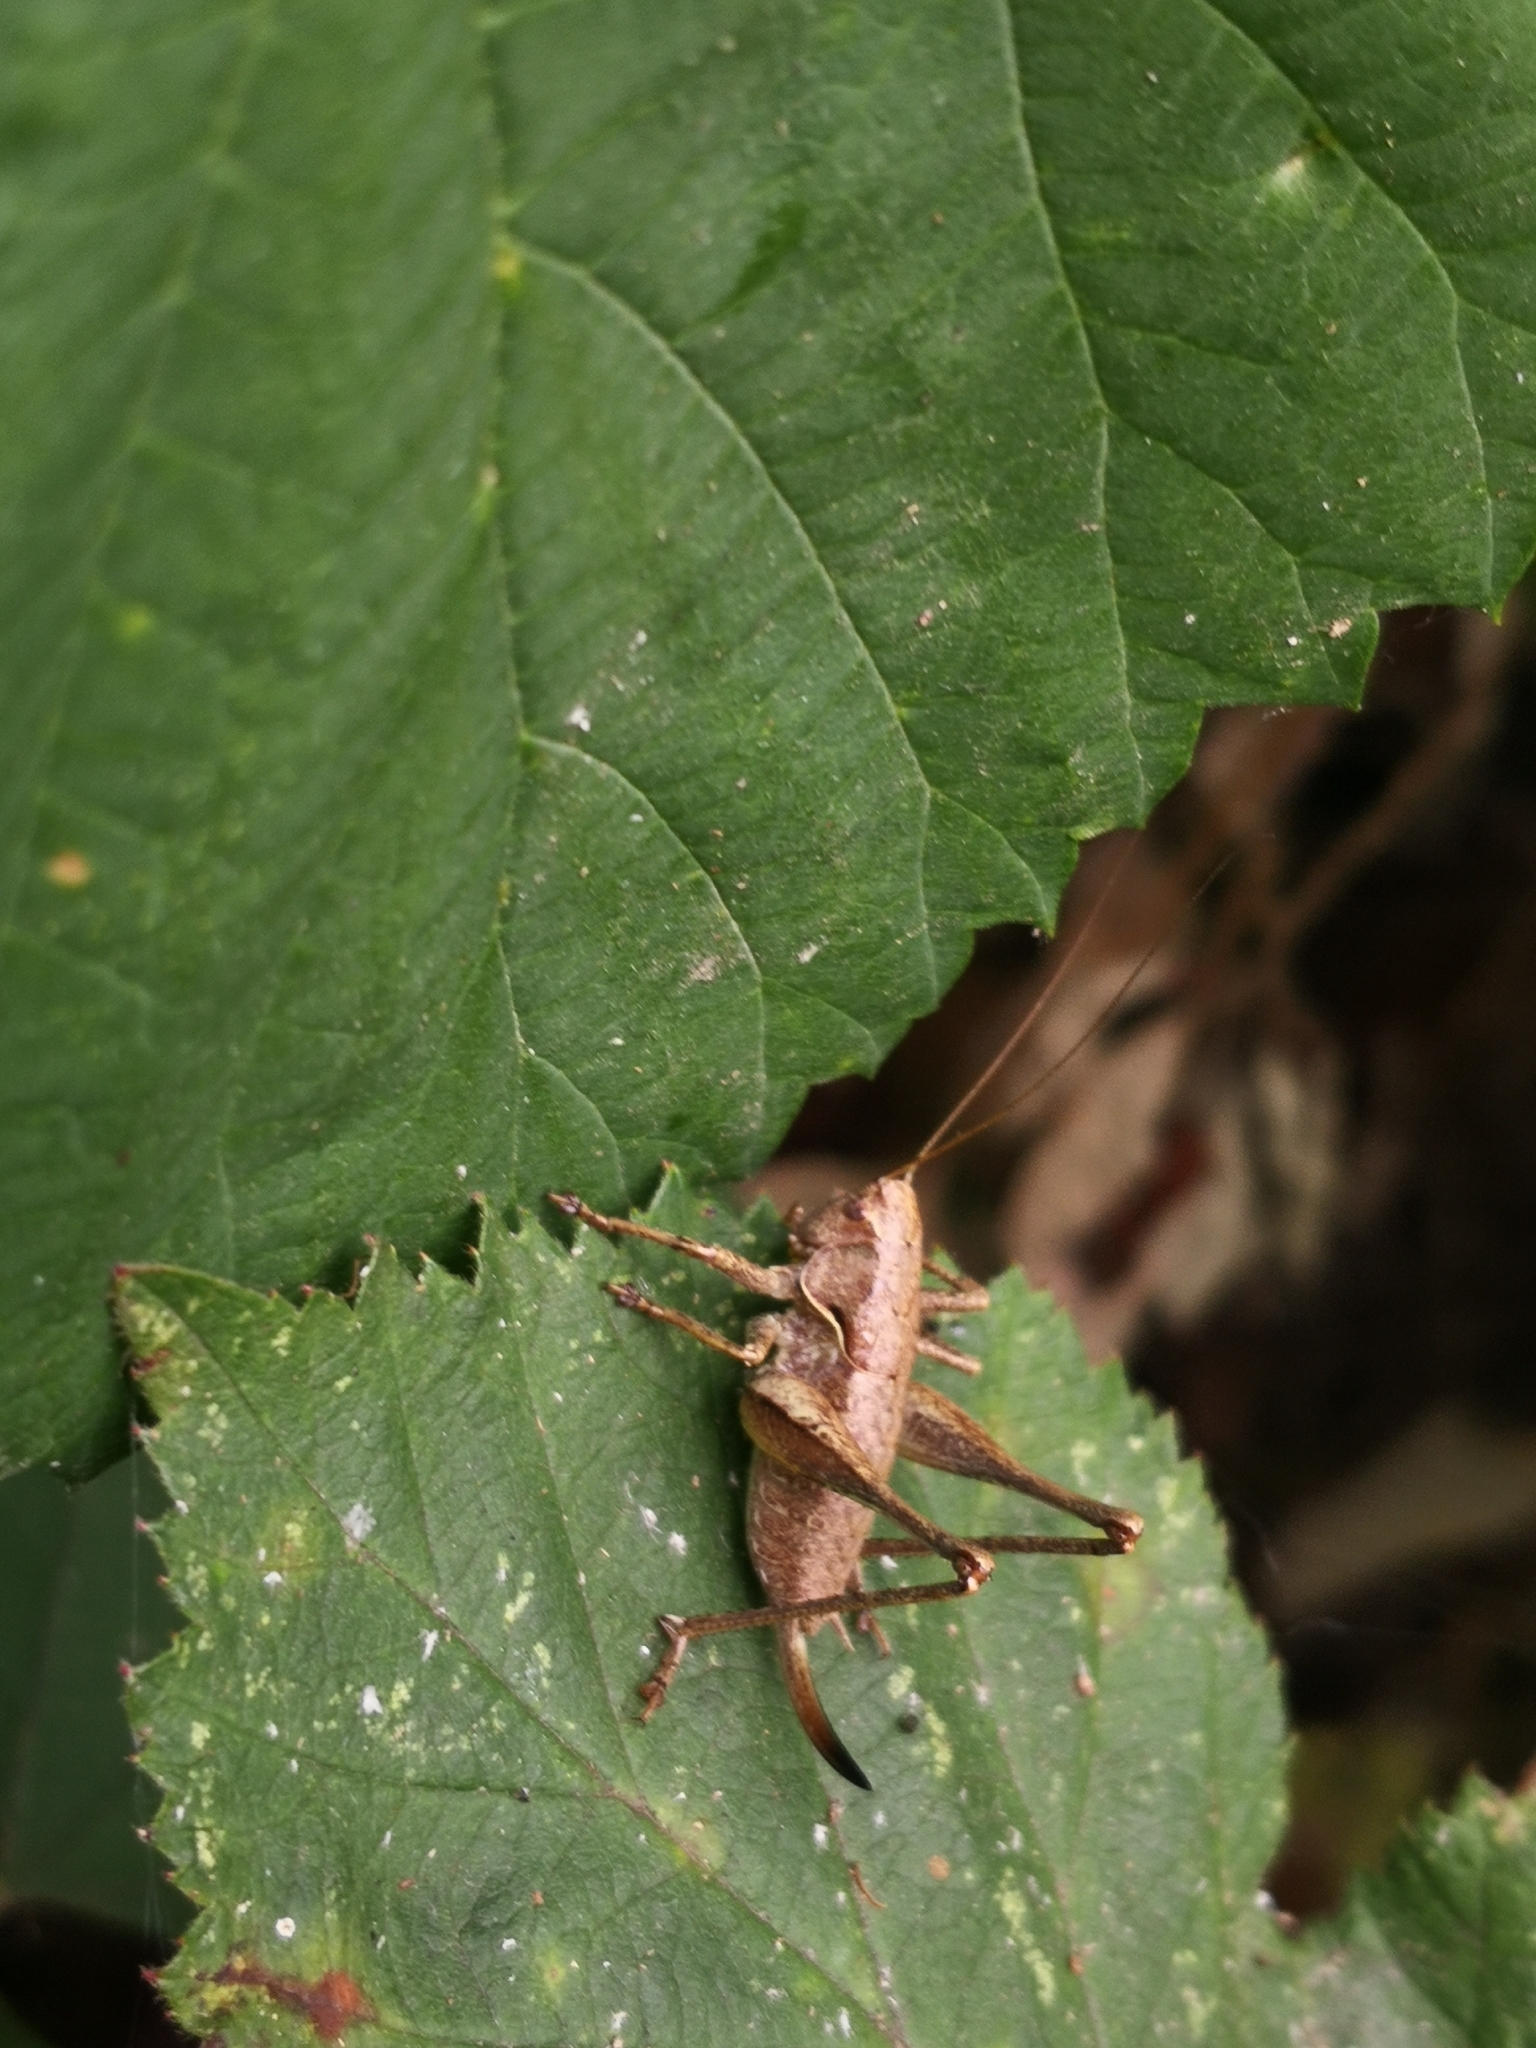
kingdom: Animalia
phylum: Arthropoda
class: Insecta
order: Orthoptera
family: Tettigoniidae
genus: Pholidoptera
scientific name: Pholidoptera griseoaptera
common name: Dark bush-cricket
